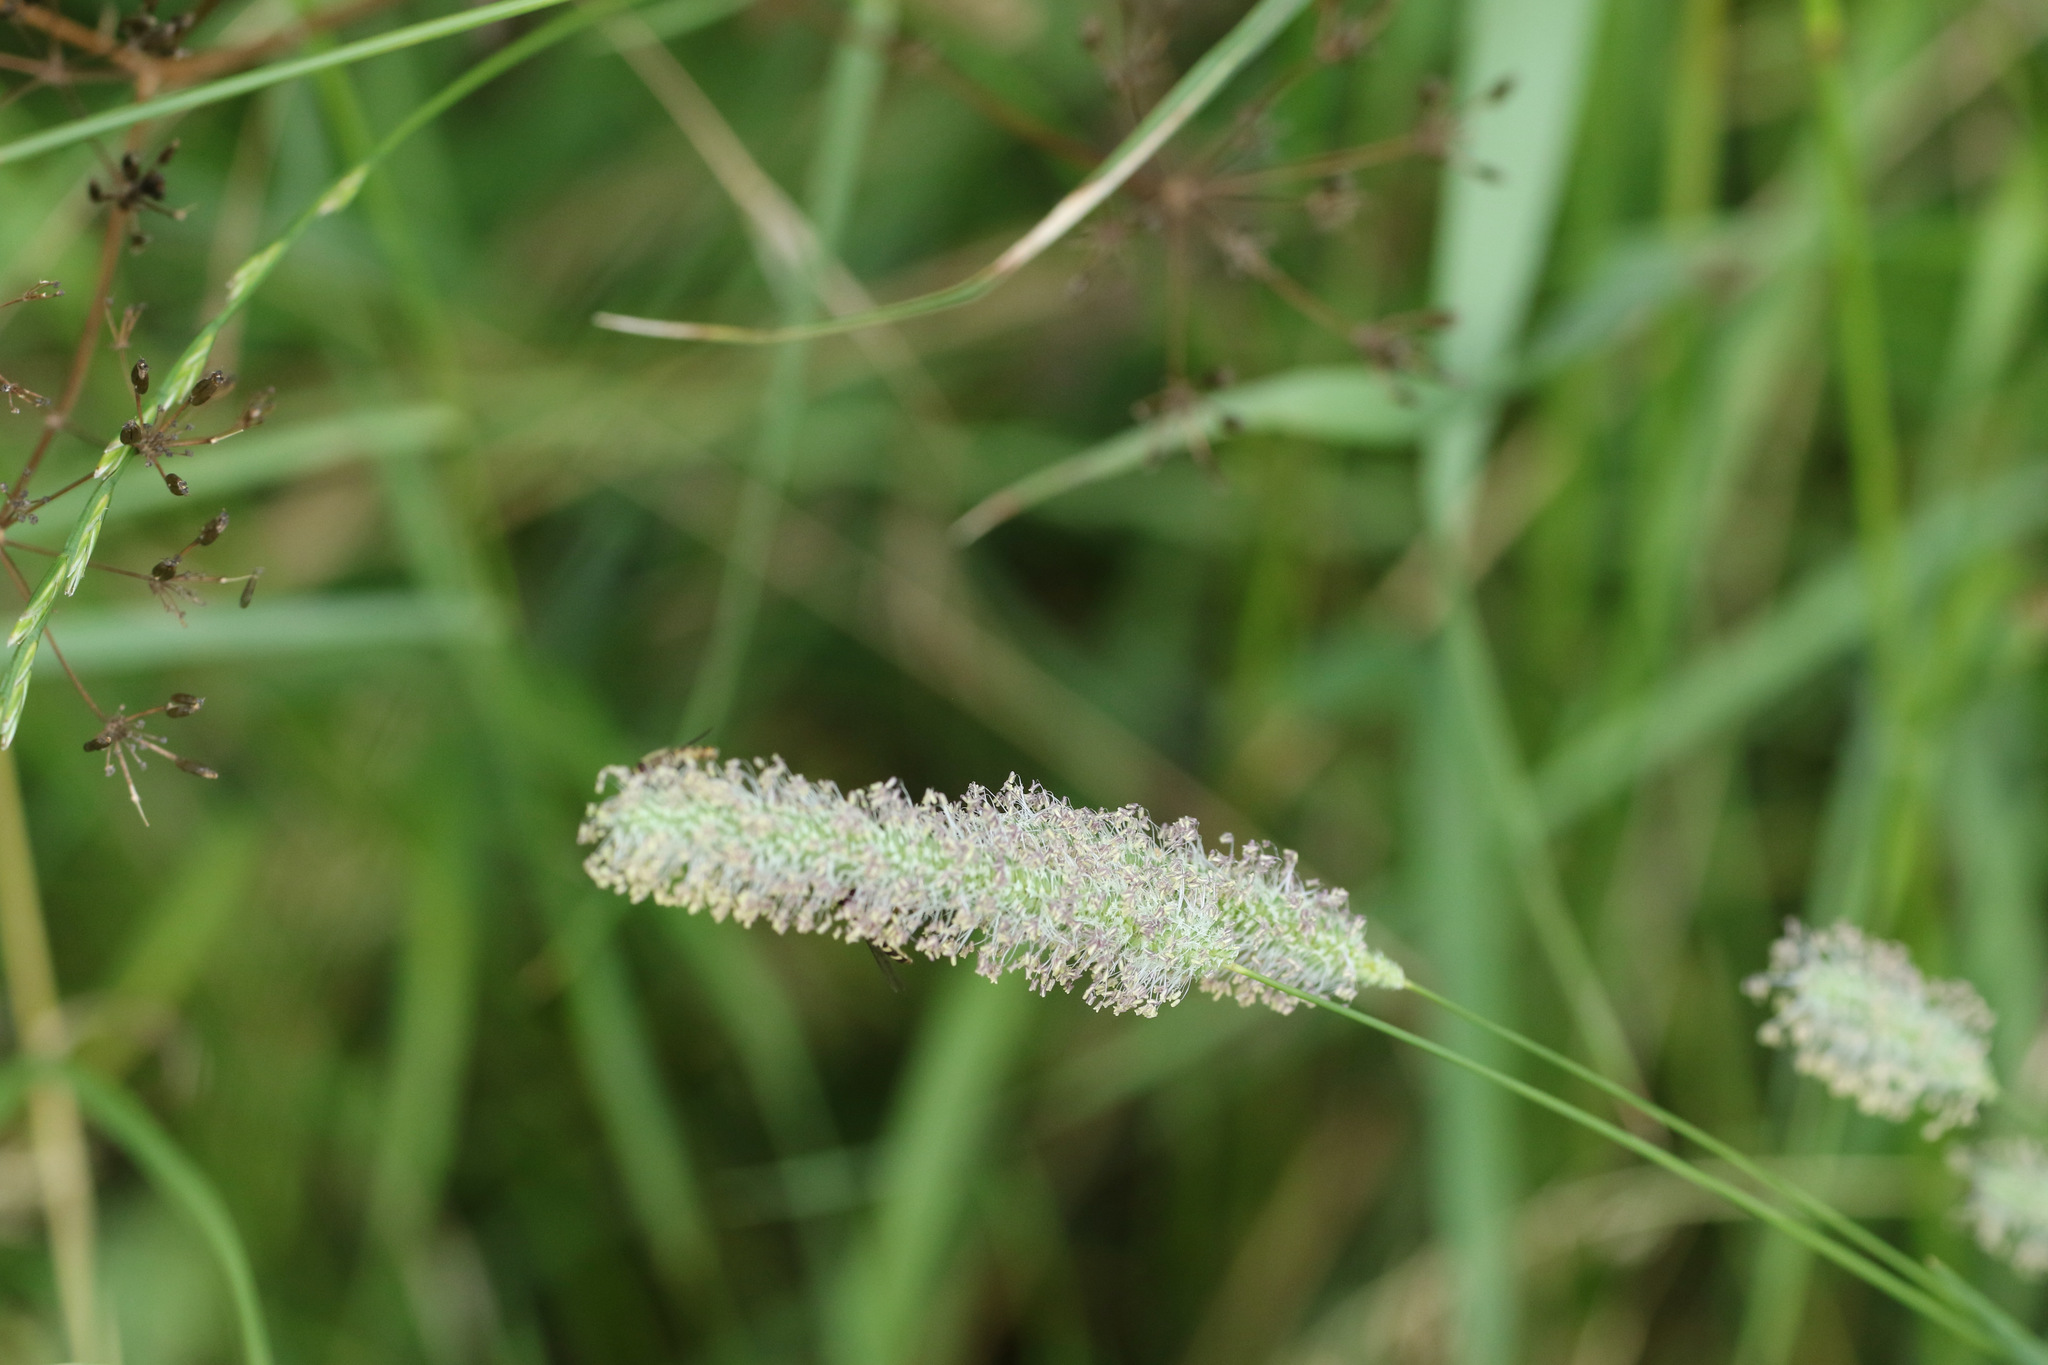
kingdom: Plantae
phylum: Tracheophyta
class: Liliopsida
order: Poales
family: Poaceae
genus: Alopecurus
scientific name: Alopecurus pratensis
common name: Meadow foxtail
